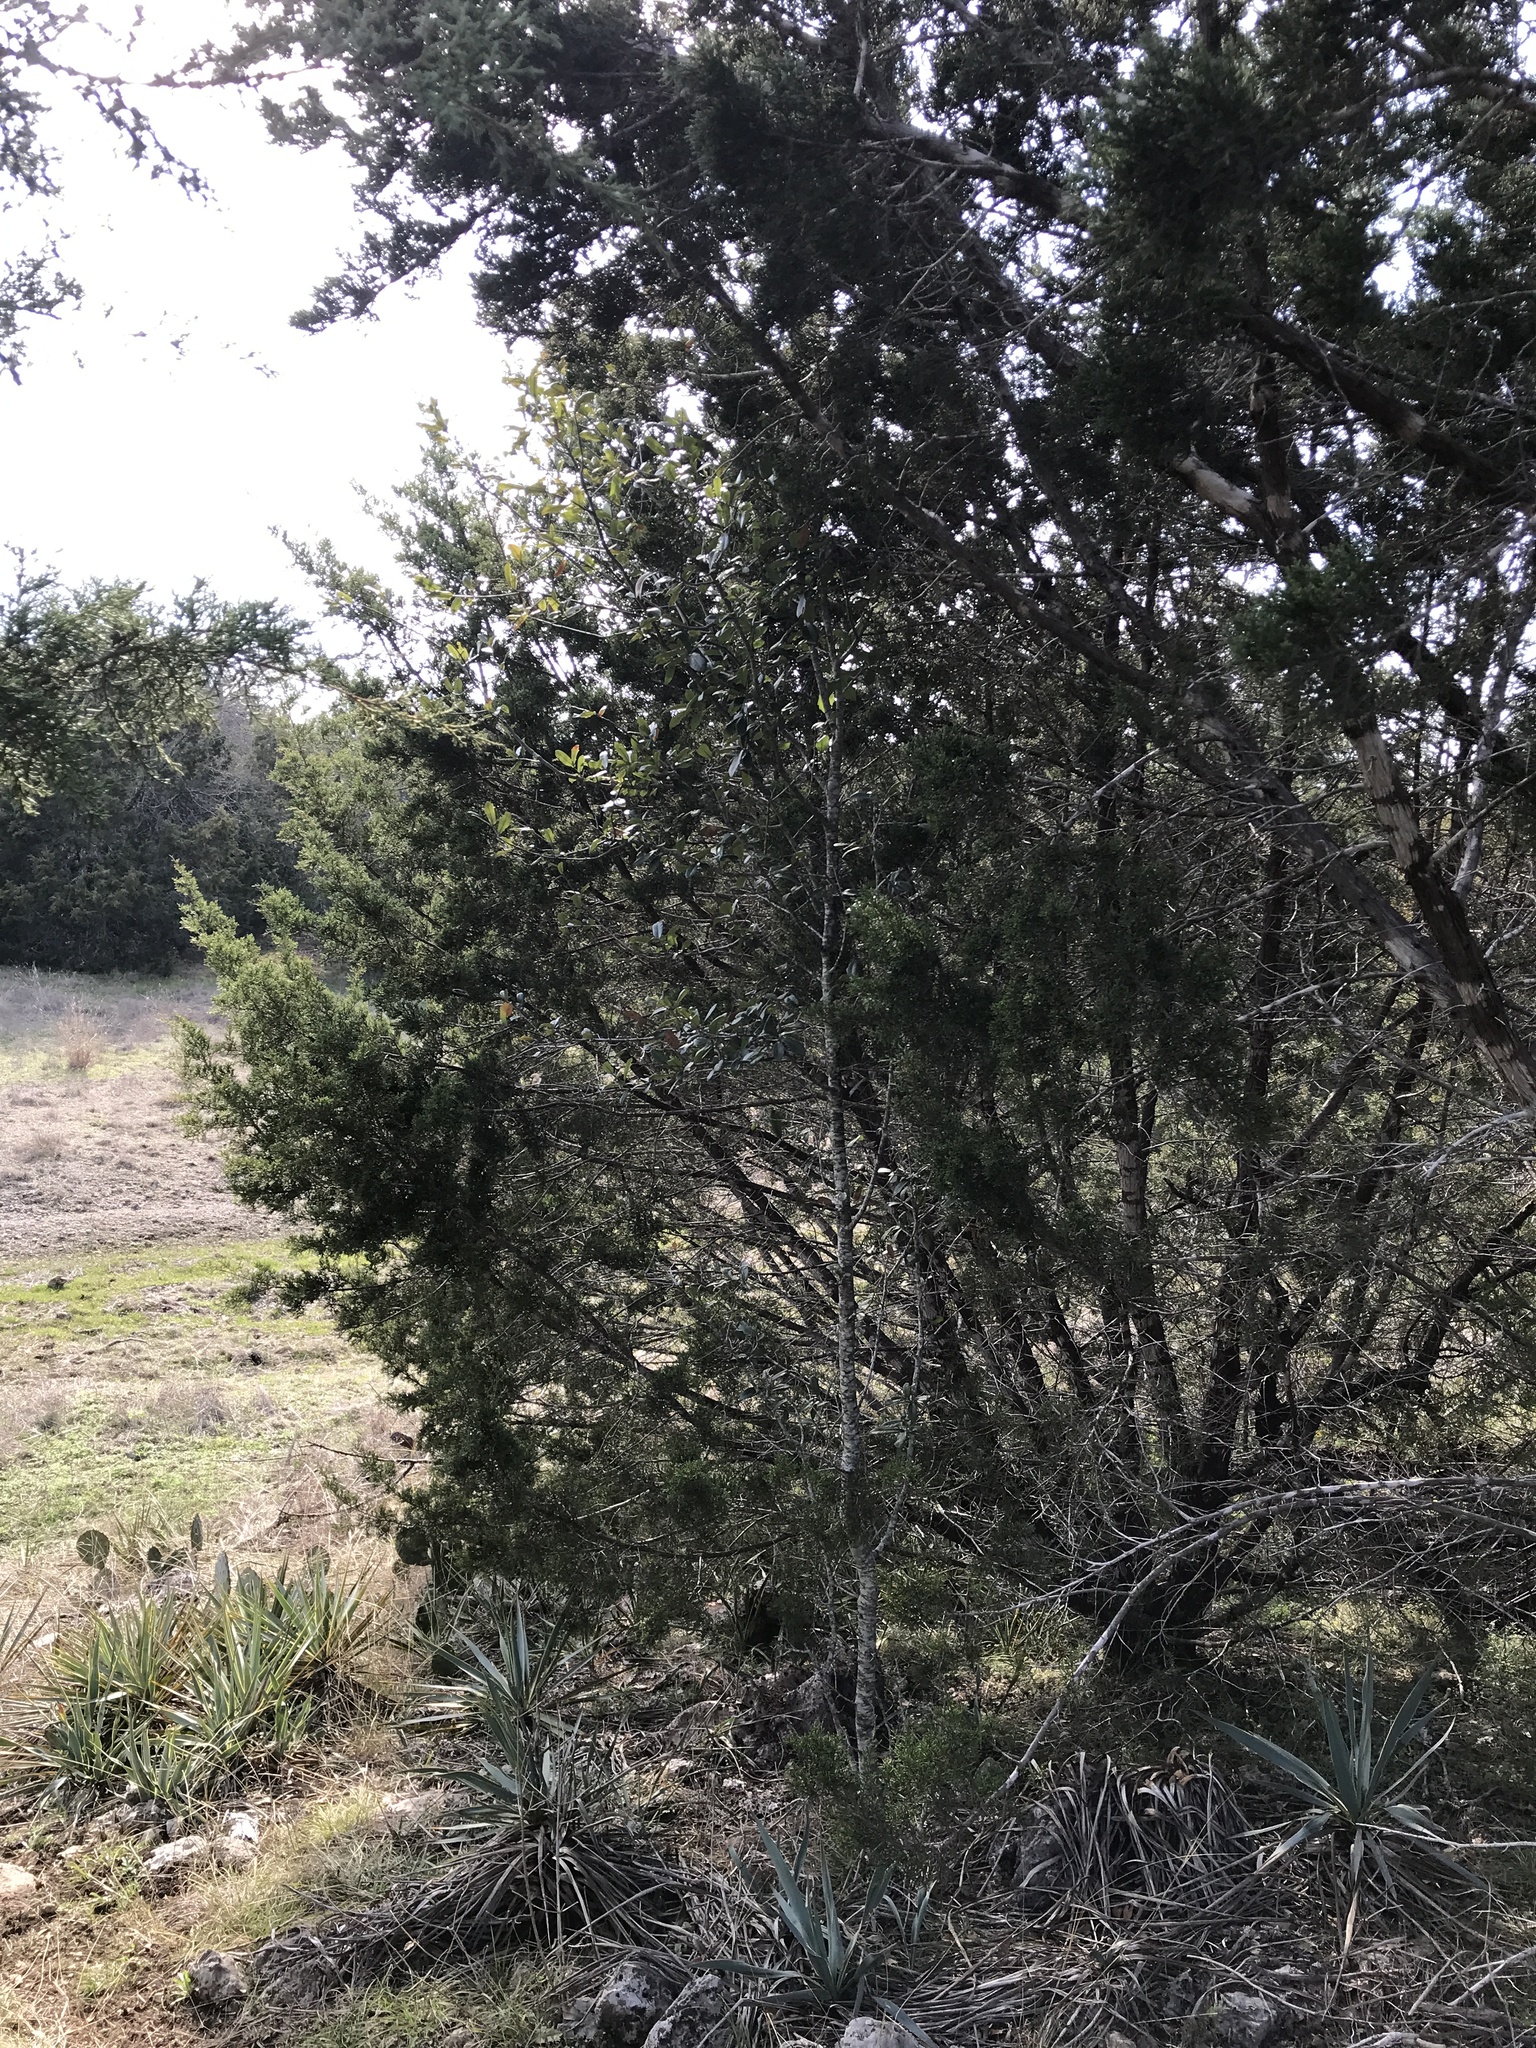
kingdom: Plantae
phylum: Tracheophyta
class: Magnoliopsida
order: Fagales
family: Fagaceae
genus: Quercus
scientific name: Quercus fusiformis
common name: Texas live oak
